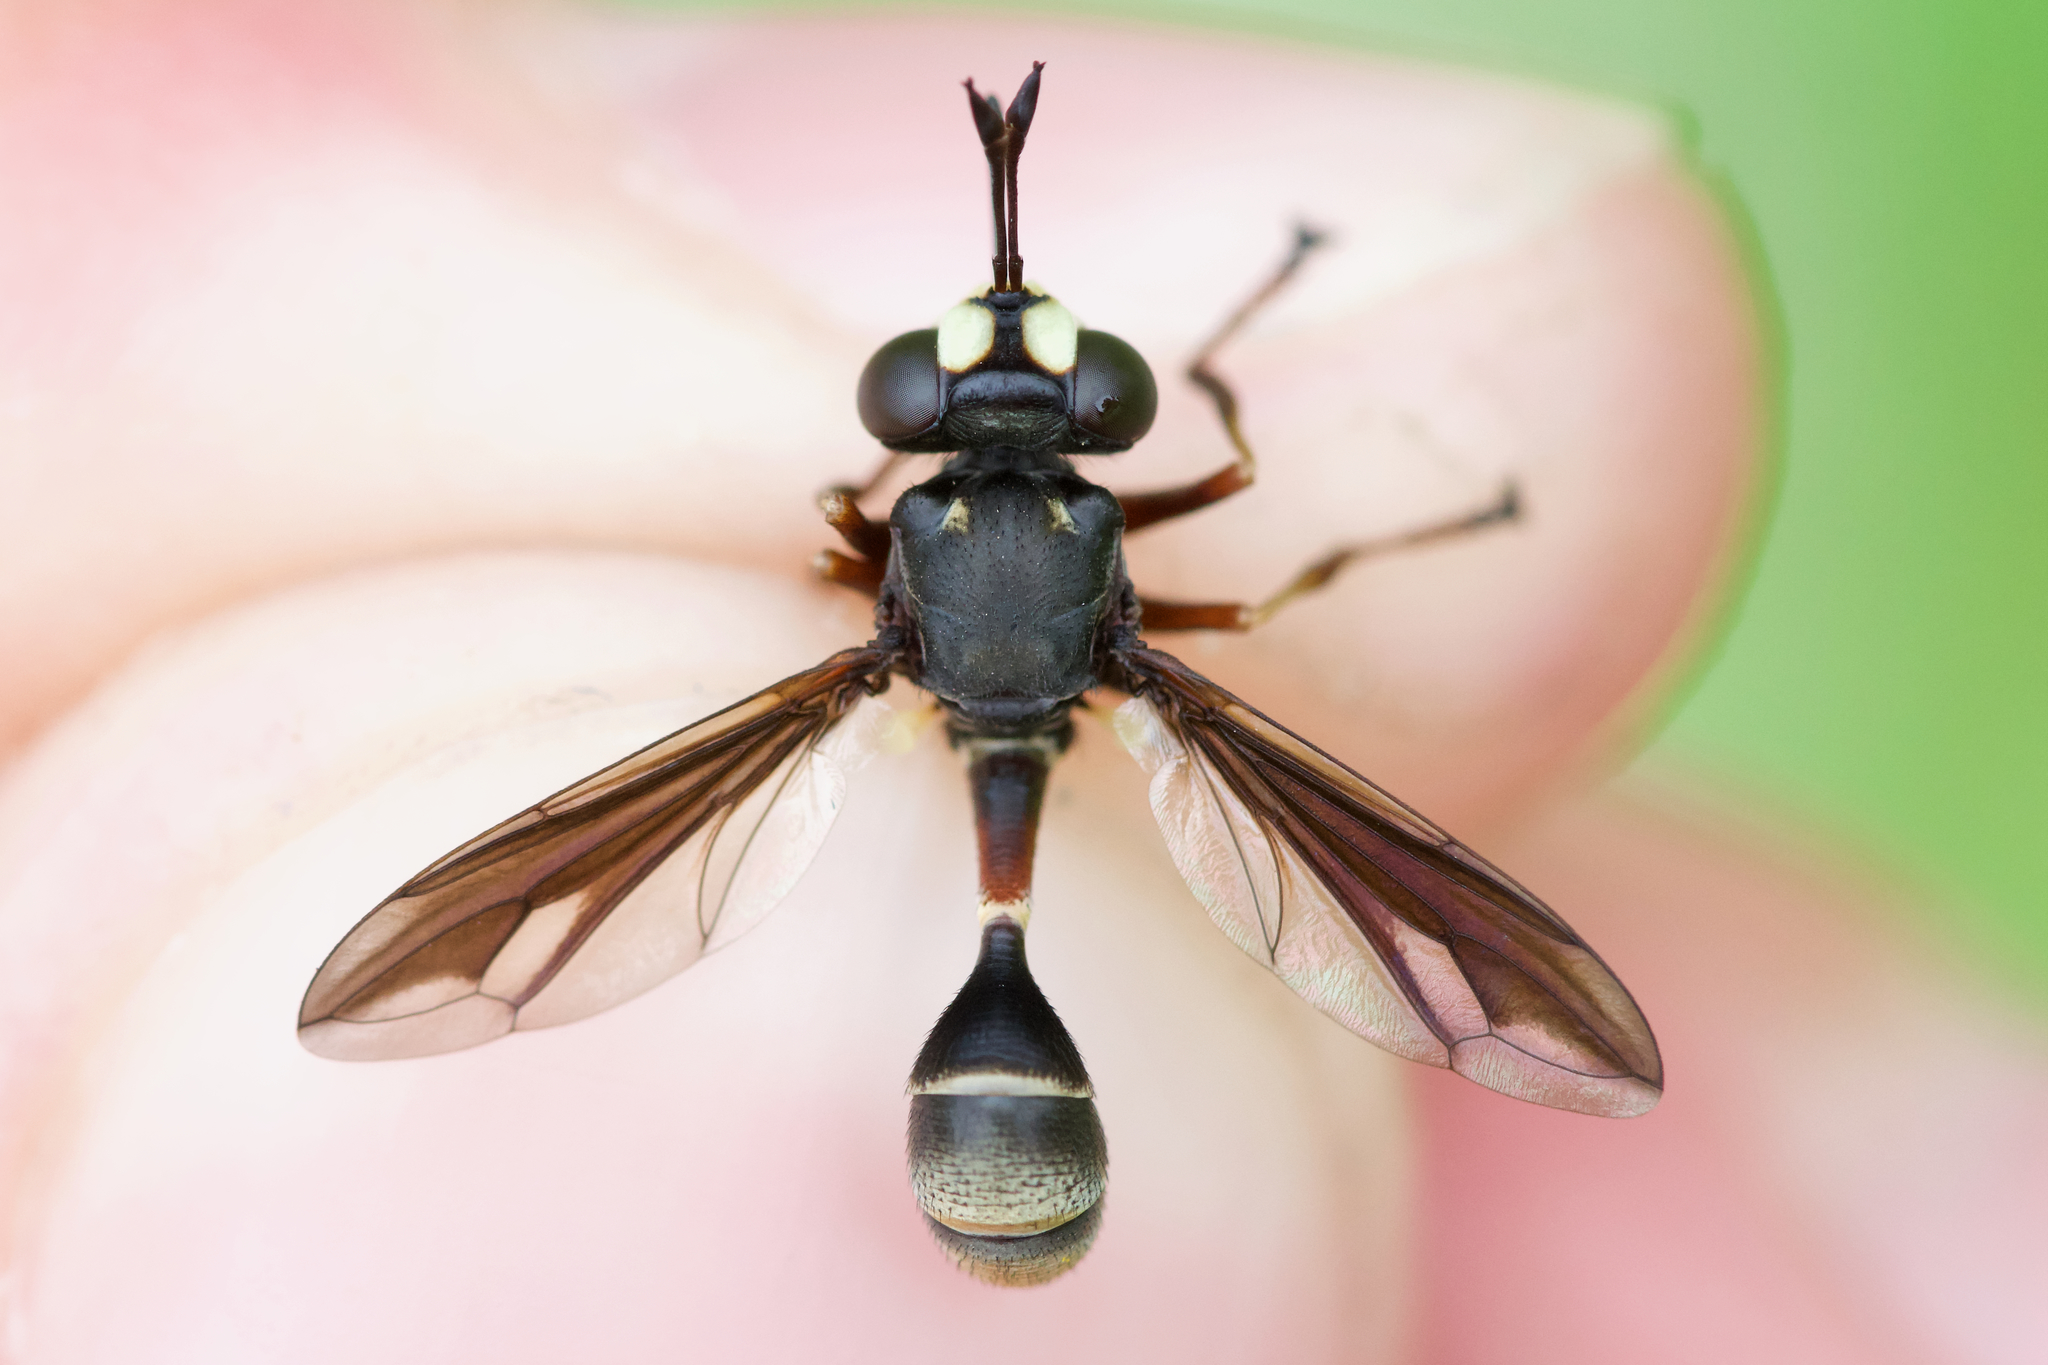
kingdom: Animalia
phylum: Arthropoda
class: Insecta
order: Diptera
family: Conopidae
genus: Physocephala
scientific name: Physocephala furcillata
